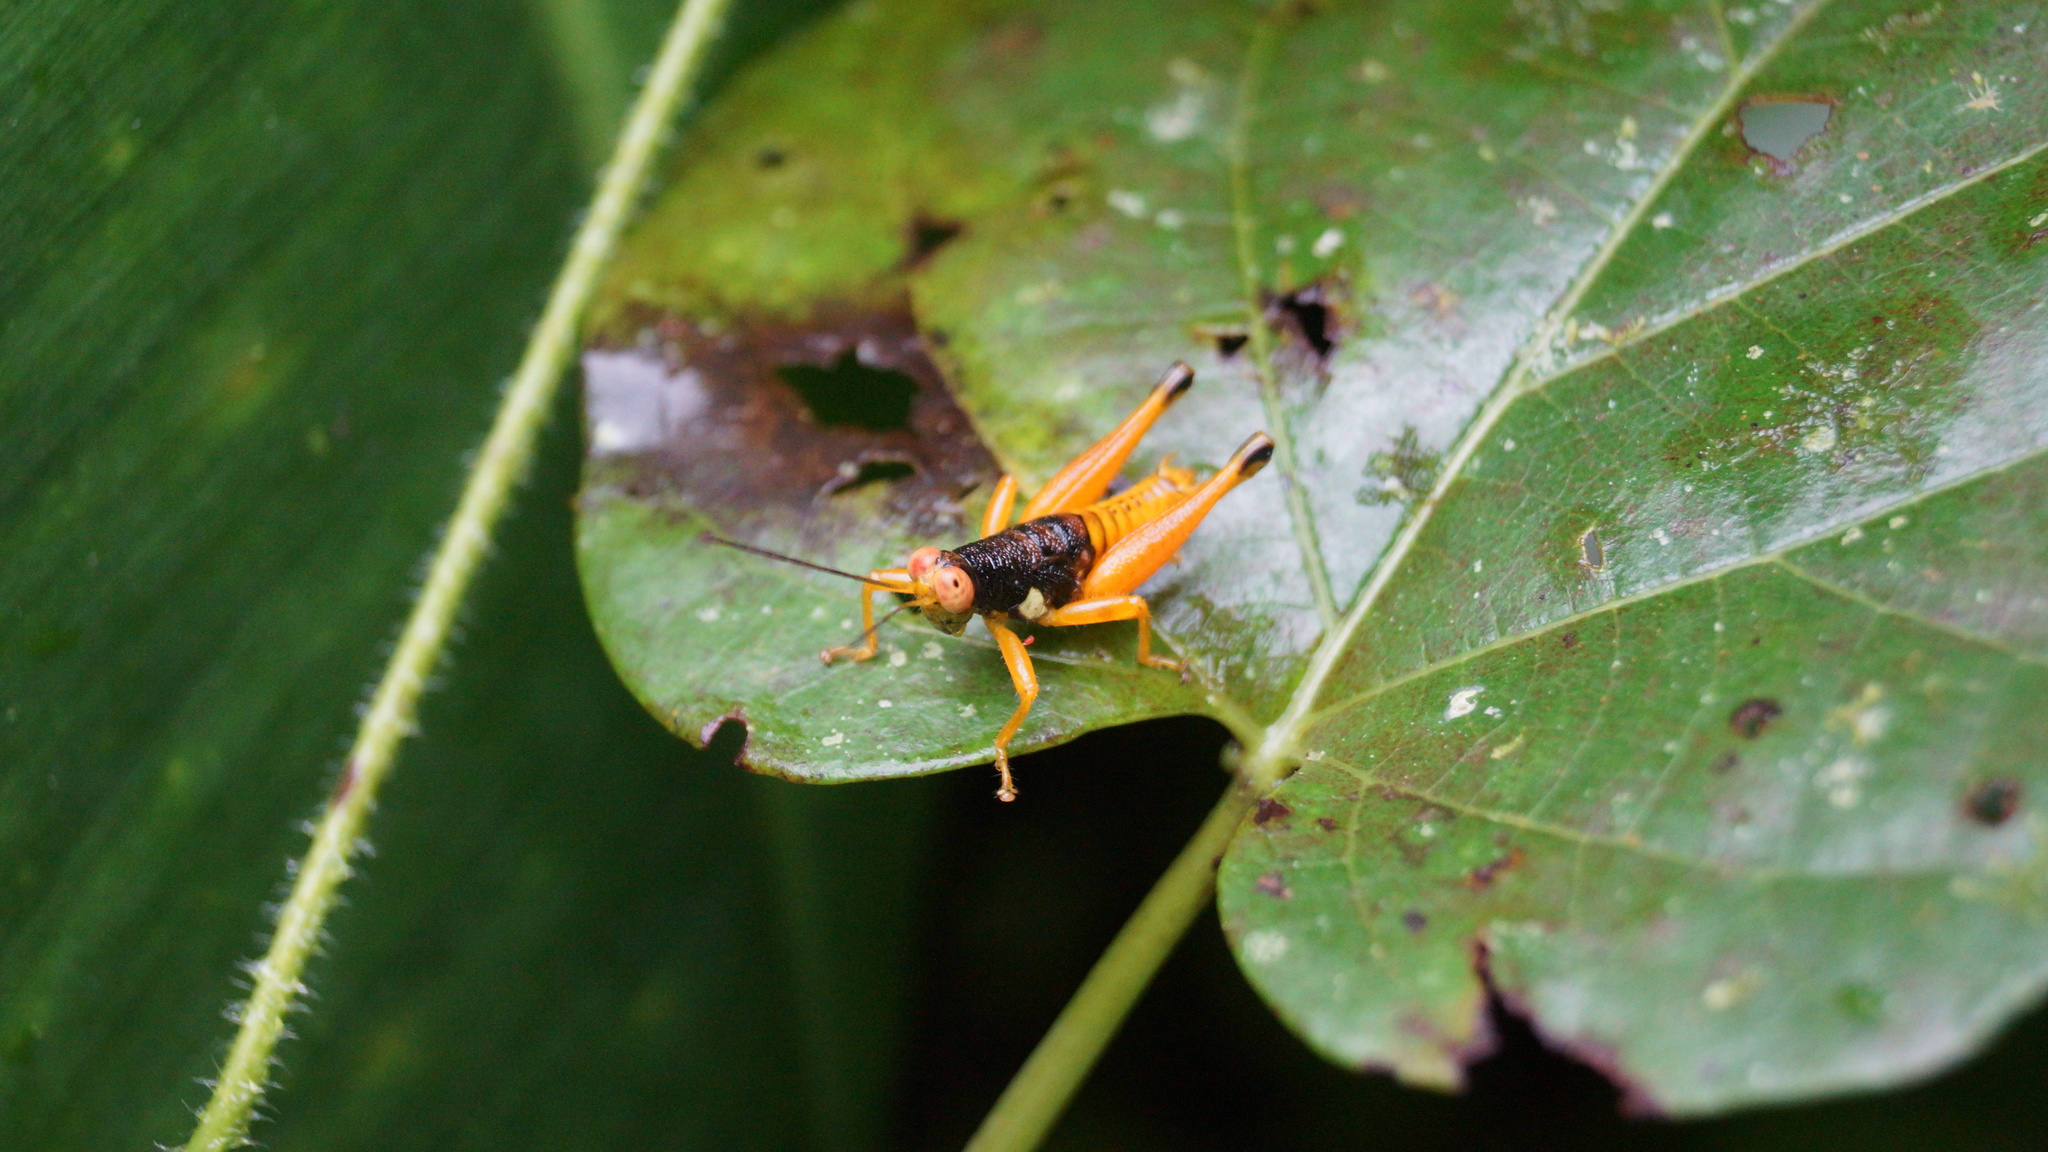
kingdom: Animalia
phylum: Arthropoda
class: Insecta
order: Orthoptera
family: Acrididae
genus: Psiloscirtus
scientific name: Psiloscirtus apterus
